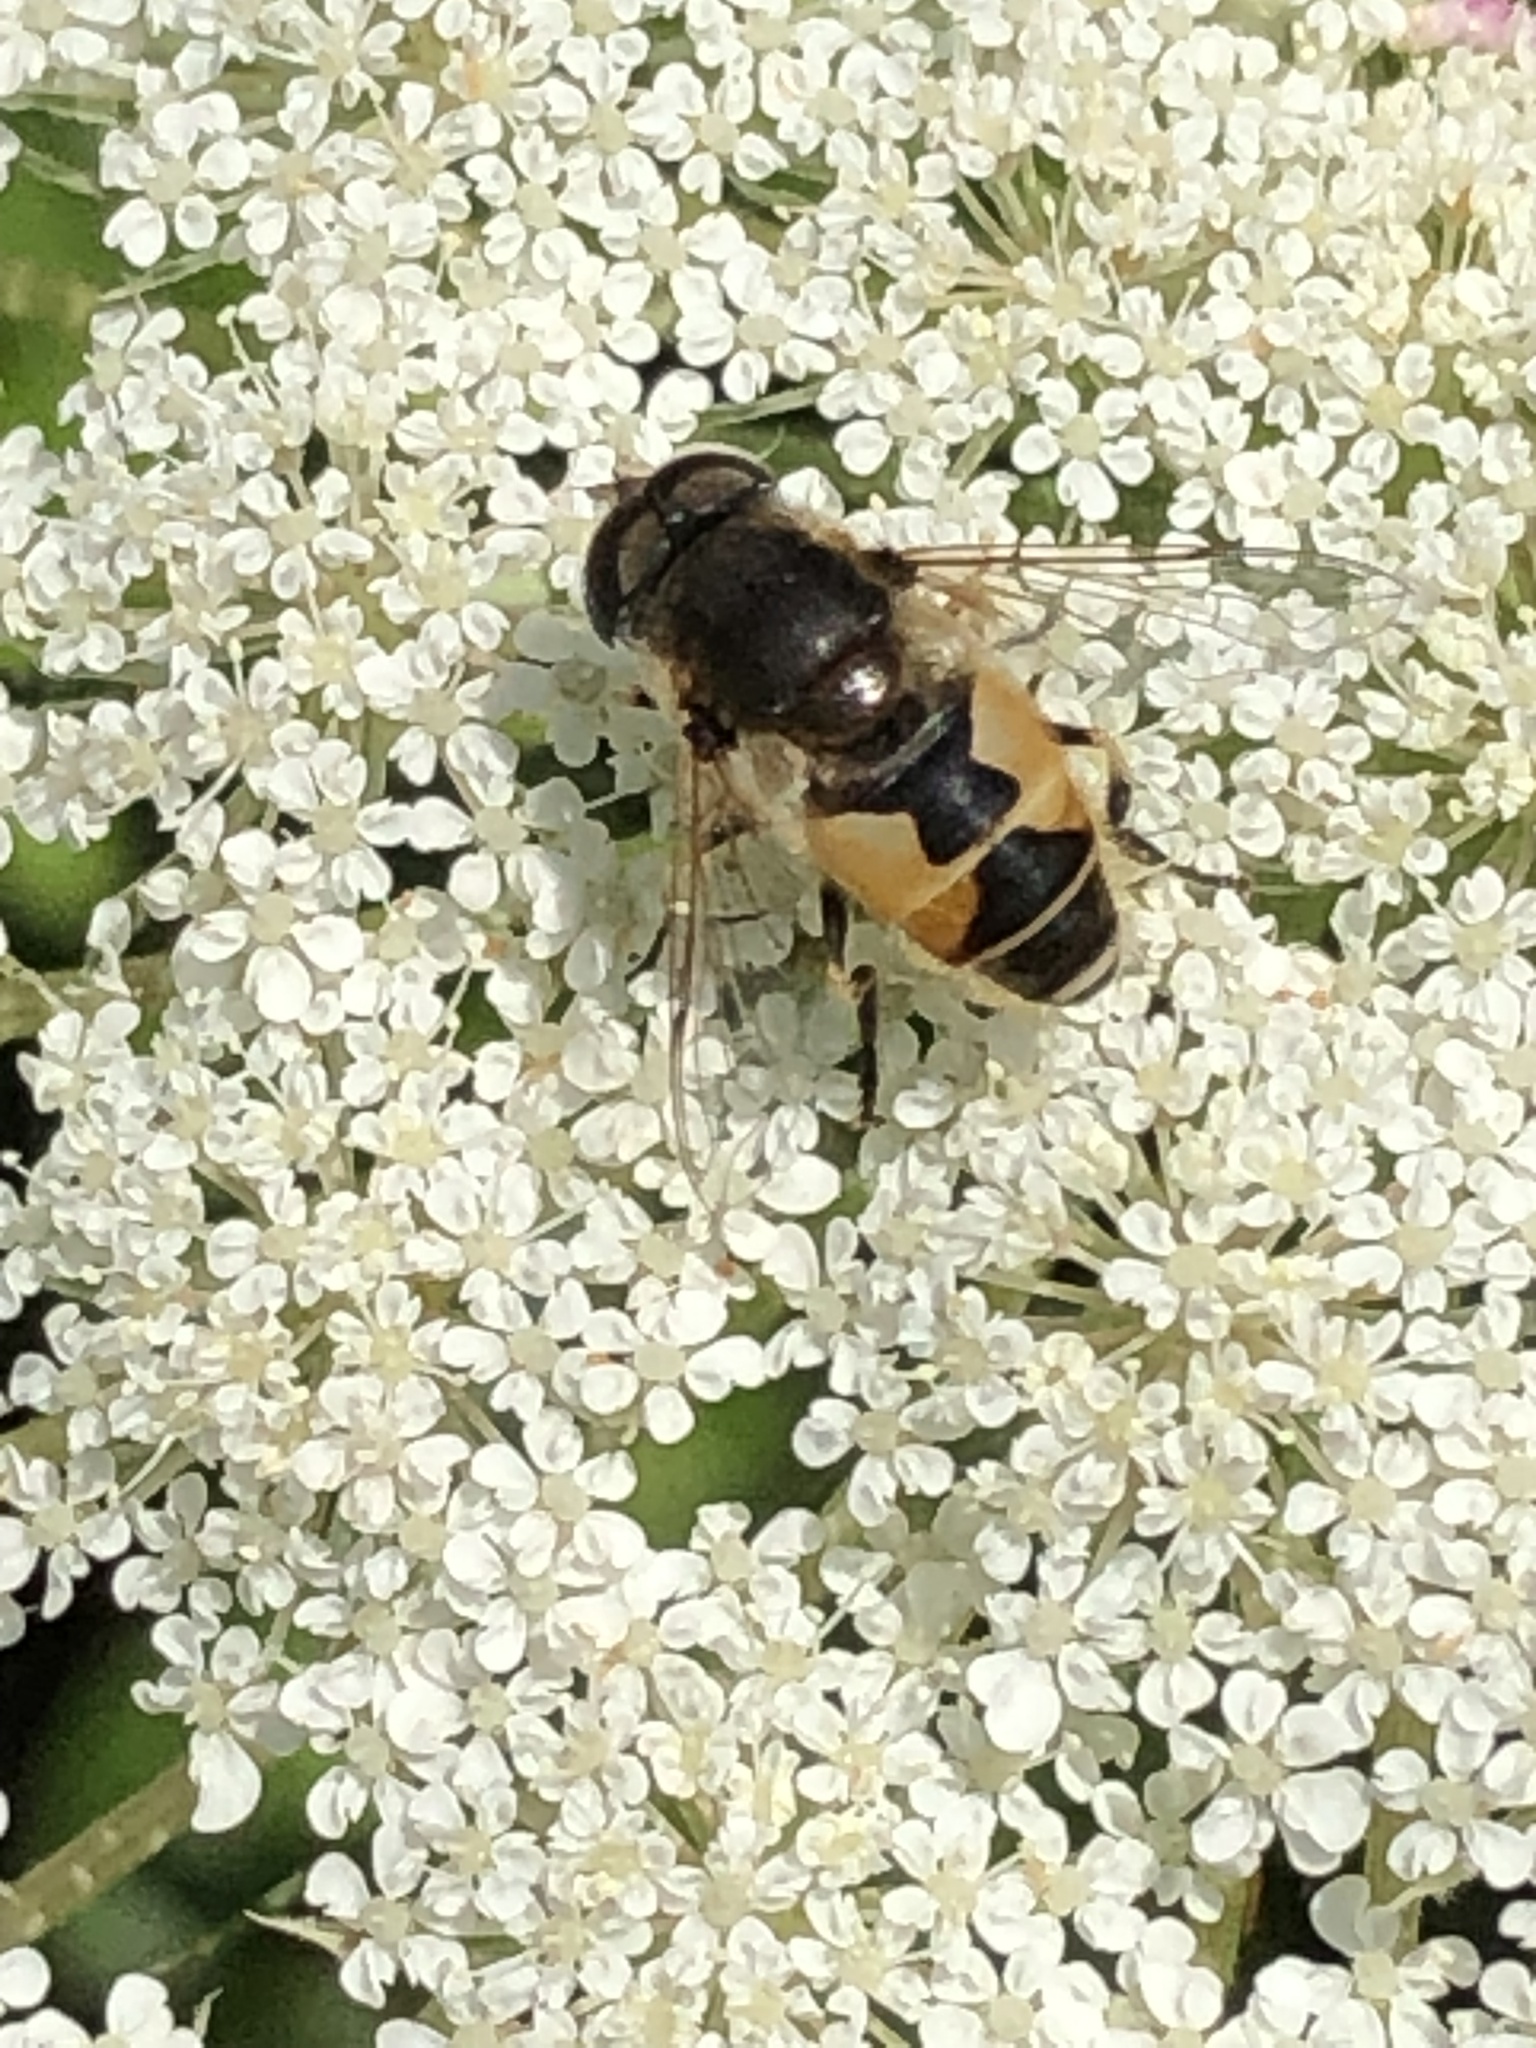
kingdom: Animalia
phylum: Arthropoda
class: Insecta
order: Diptera
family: Syrphidae
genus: Eristalis
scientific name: Eristalis arbustorum
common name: Hover fly
